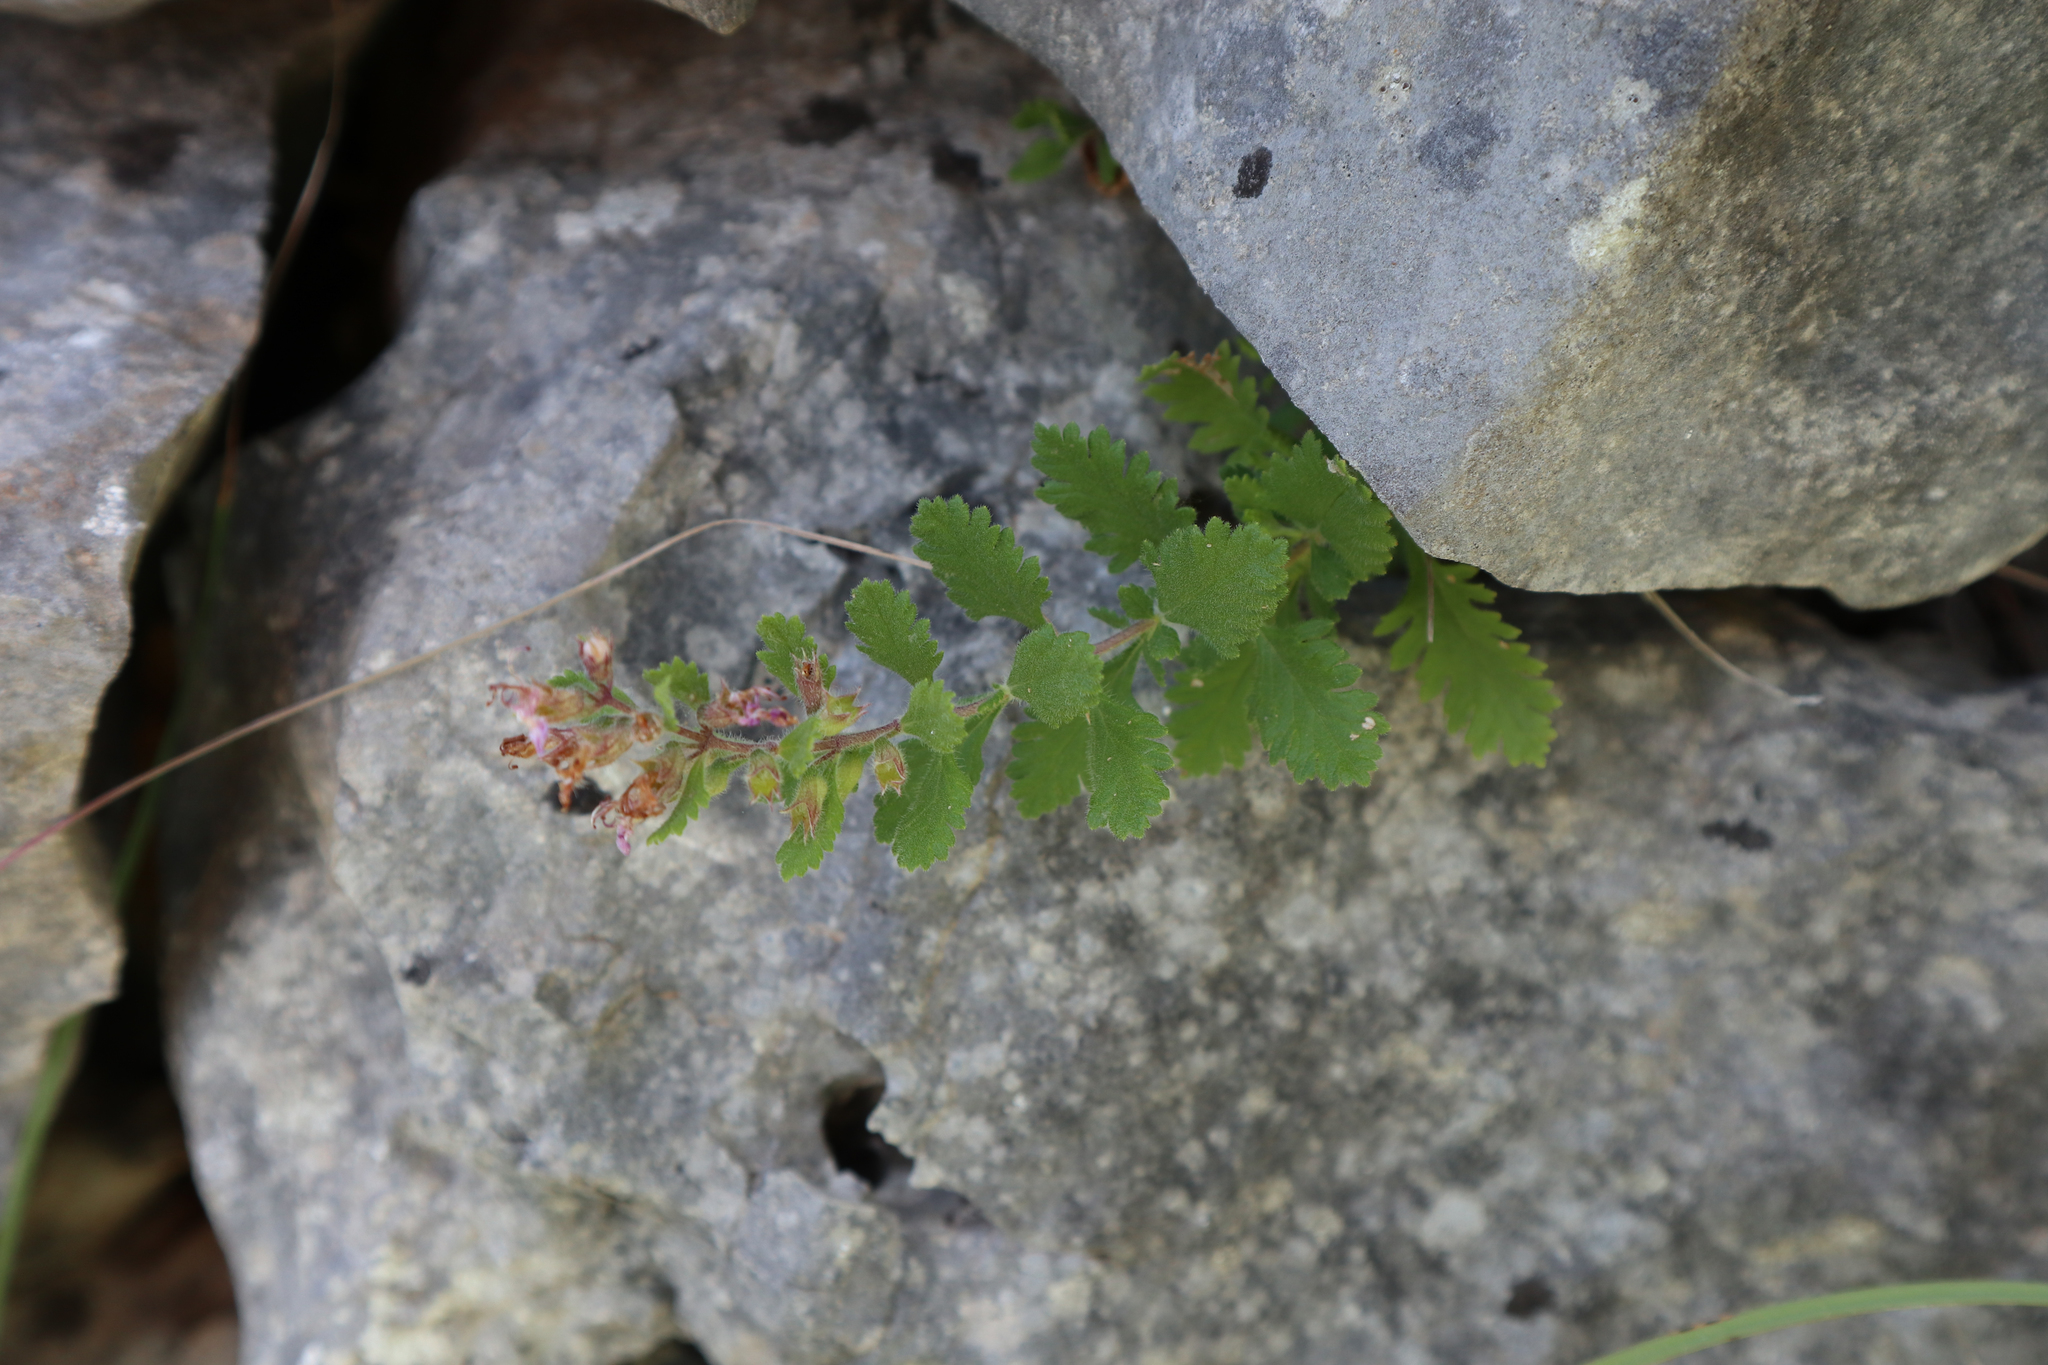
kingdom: Plantae
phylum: Tracheophyta
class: Magnoliopsida
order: Lamiales
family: Lamiaceae
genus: Teucrium
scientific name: Teucrium chamaedrys
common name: Wall germander
